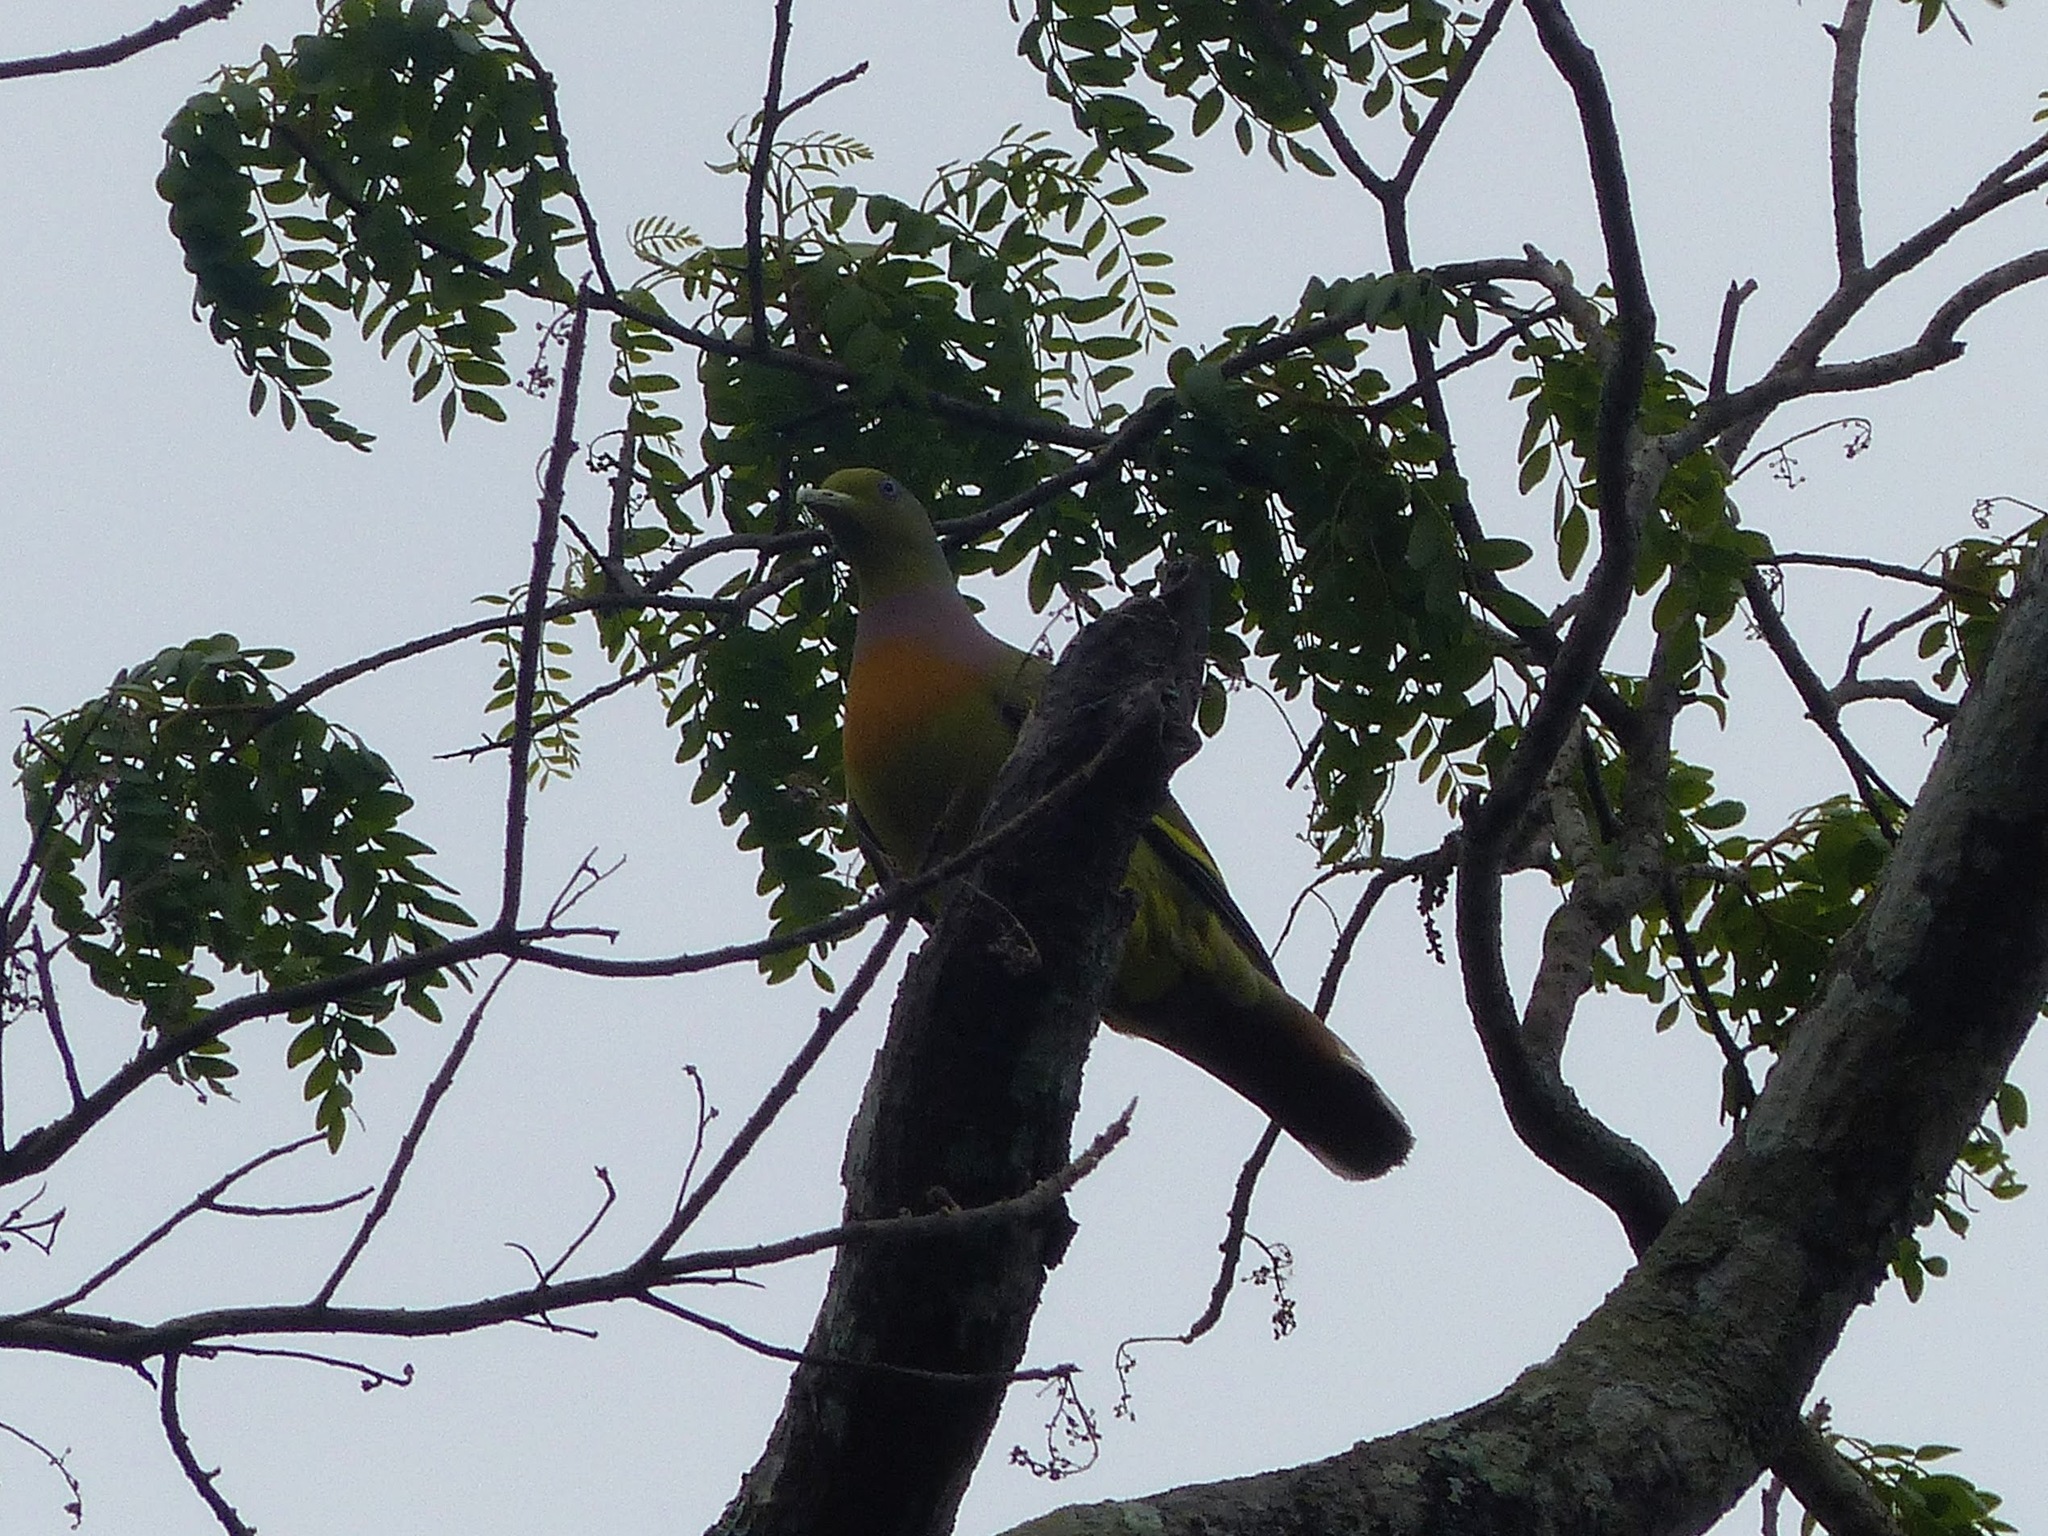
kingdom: Animalia
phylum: Chordata
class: Aves
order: Columbiformes
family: Columbidae
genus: Treron
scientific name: Treron bicinctus
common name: Orange-breasted green pigeon
